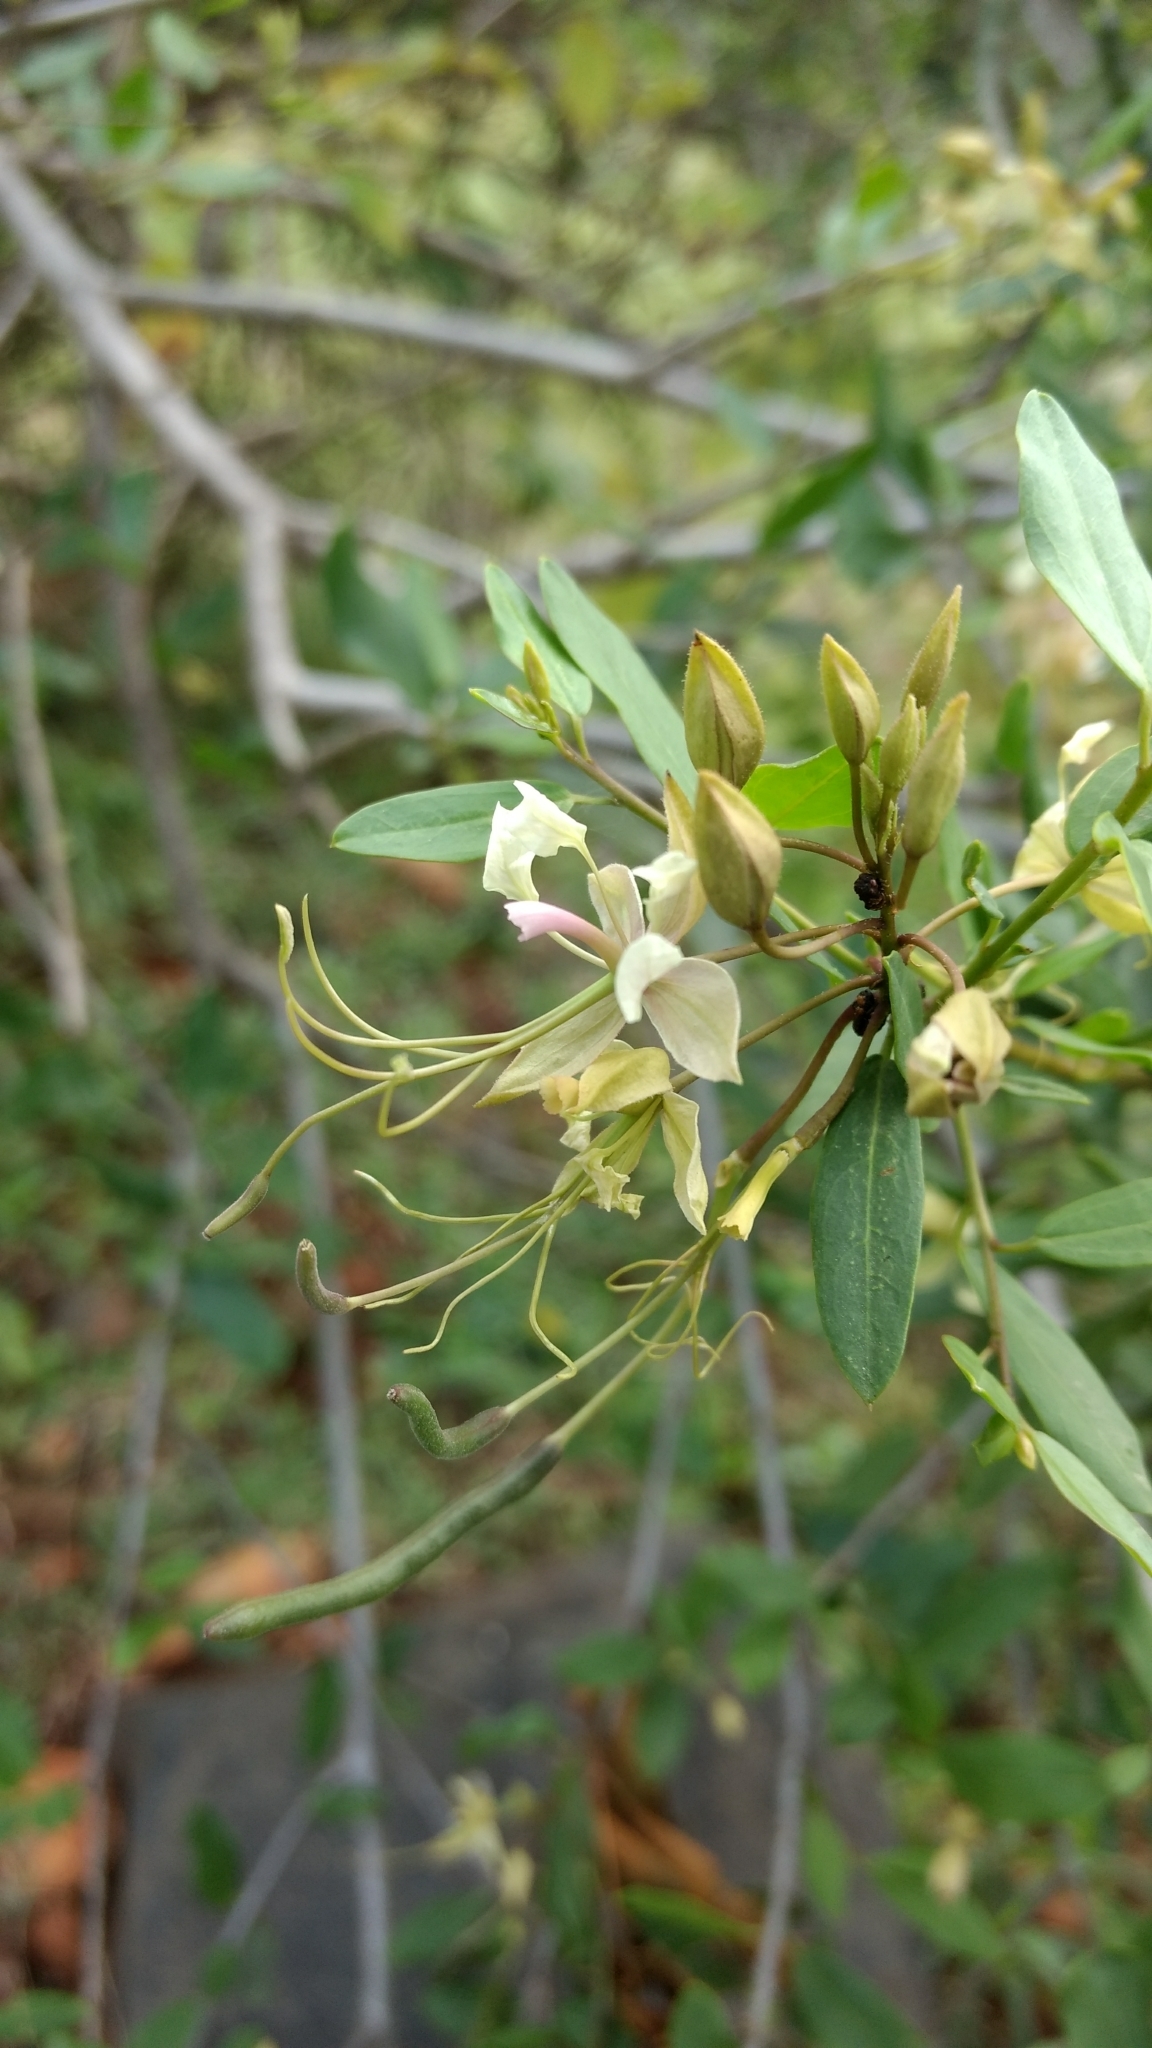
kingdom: Plantae
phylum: Tracheophyta
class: Magnoliopsida
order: Brassicales
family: Capparaceae
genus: Cadaba
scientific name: Cadaba fruticosa
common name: Indian cadaba
